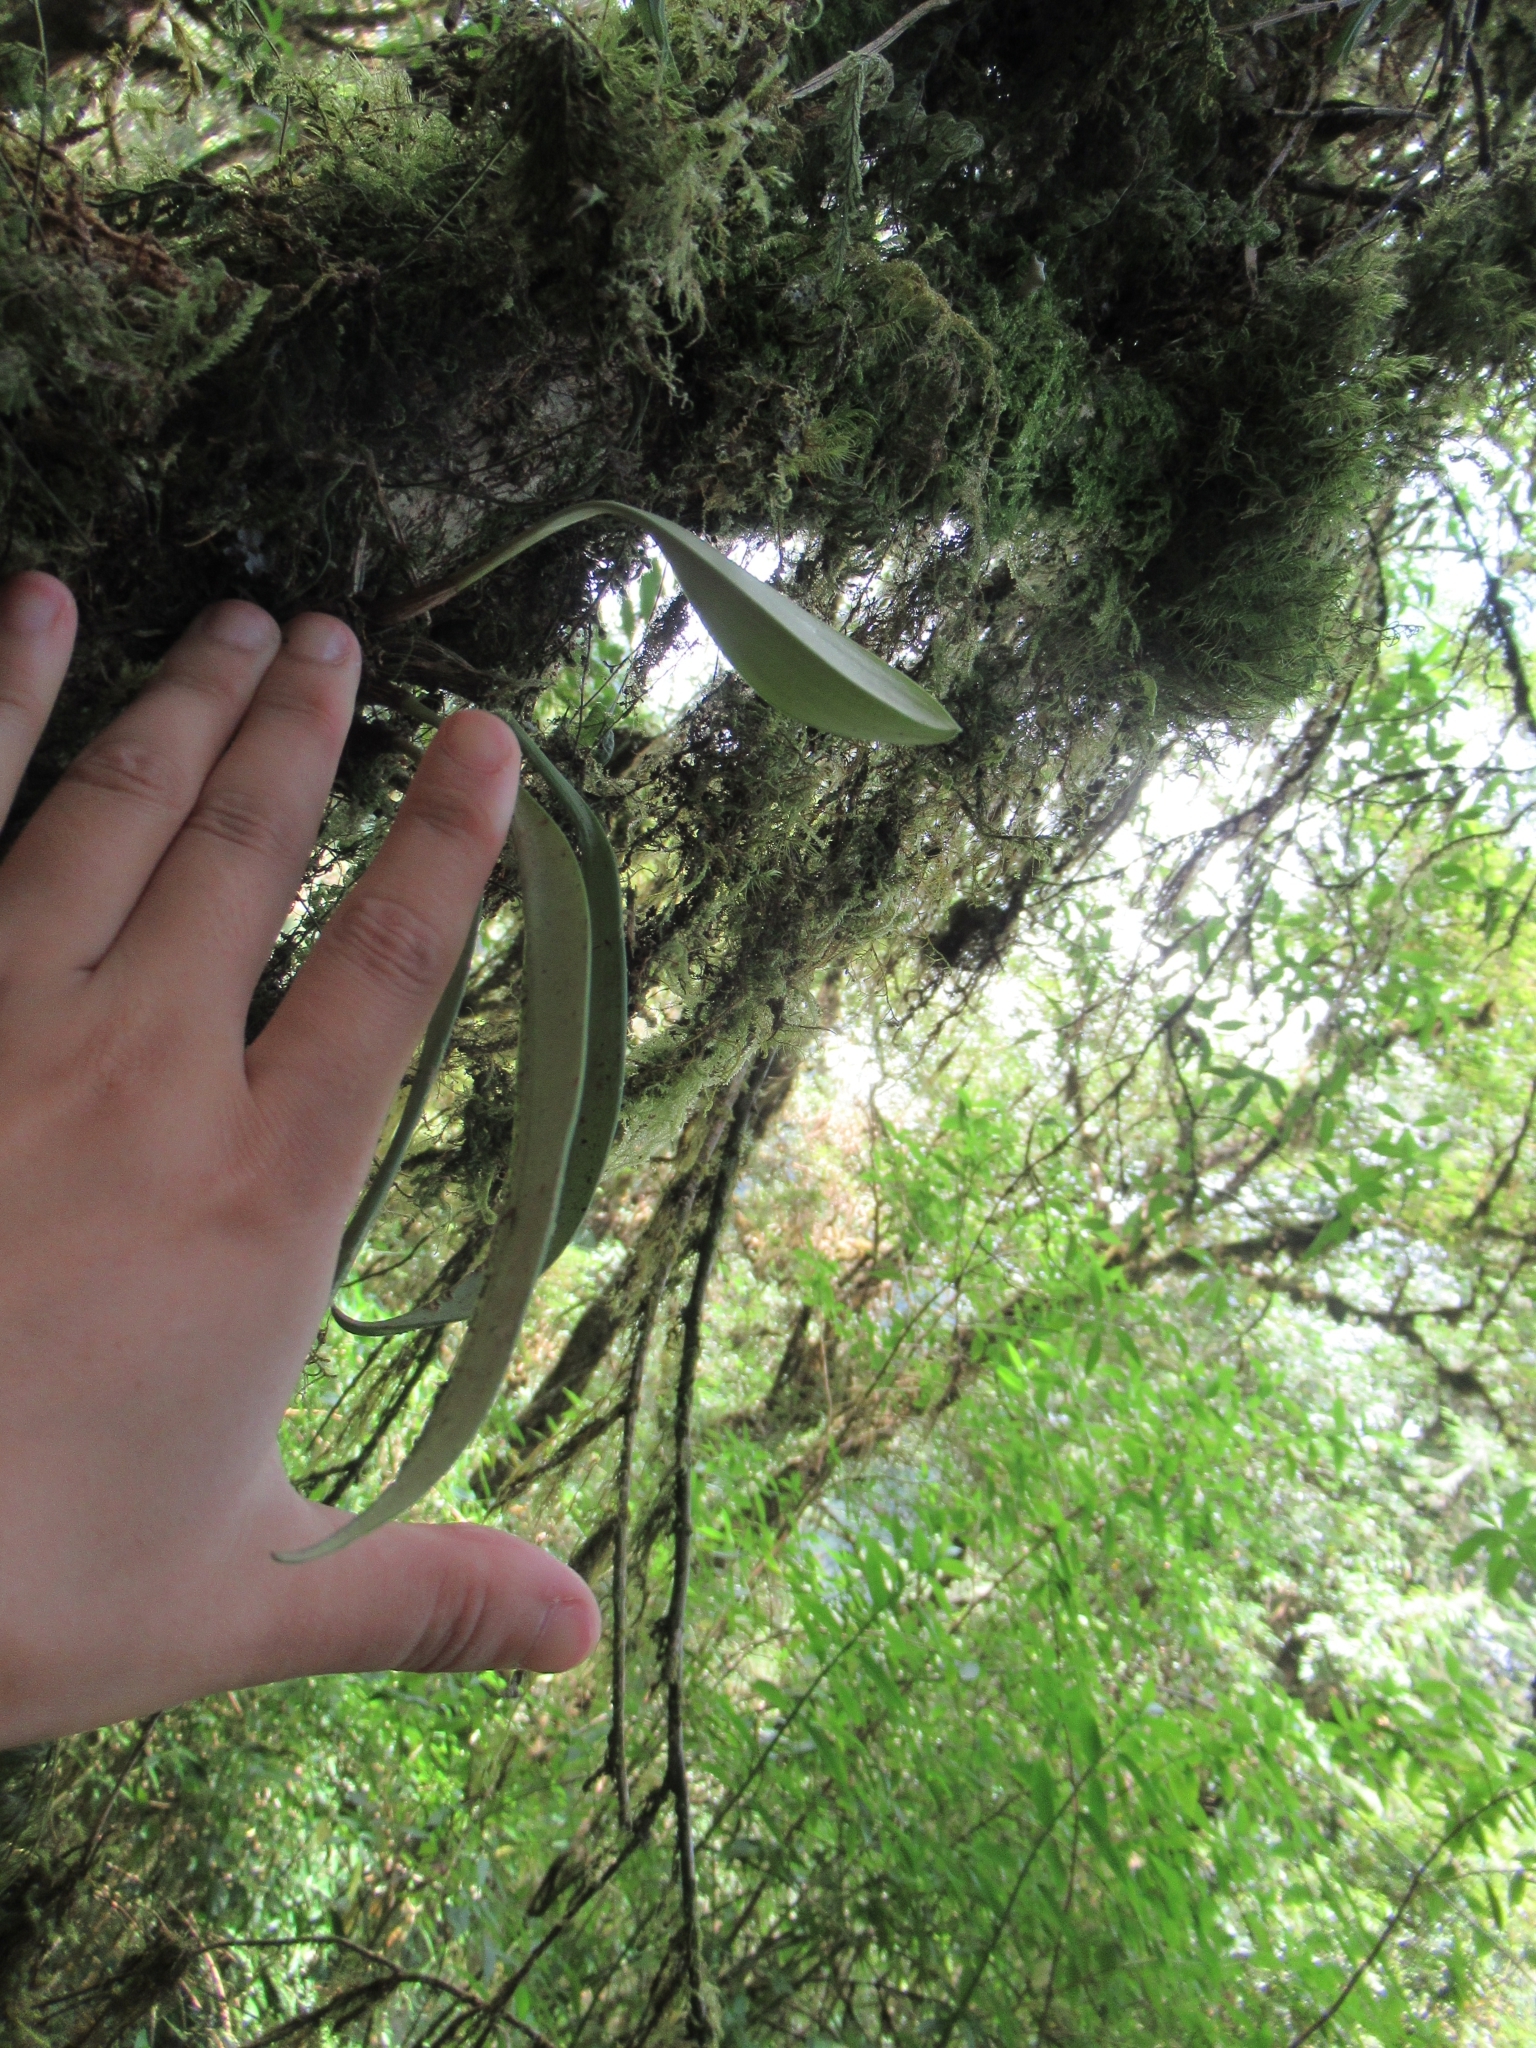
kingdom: Plantae
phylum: Tracheophyta
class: Liliopsida
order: Asparagales
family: Orchidaceae
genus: Bulbophyllum
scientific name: Bulbophyllum insulsoides
